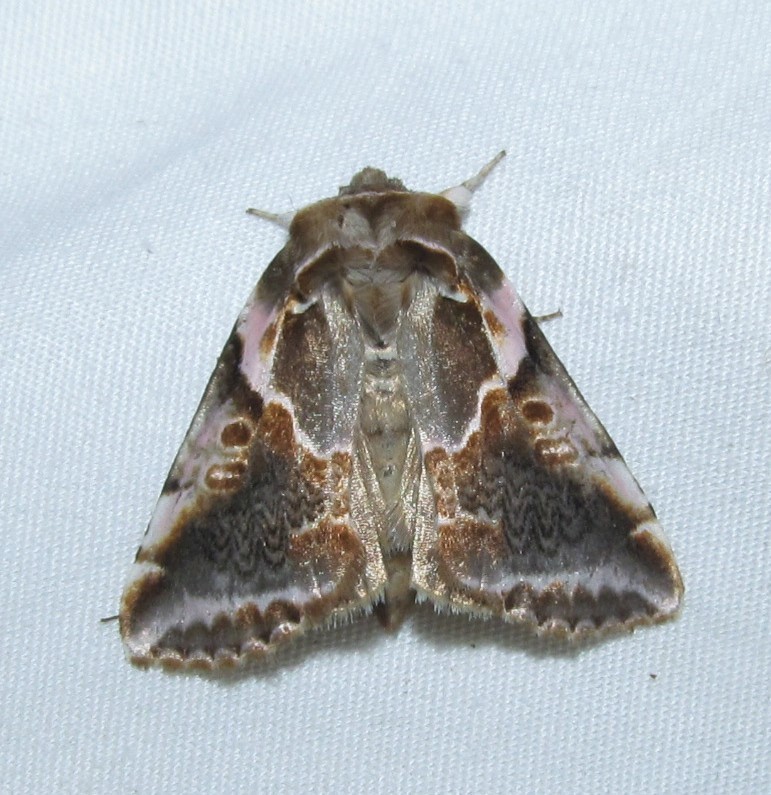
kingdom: Animalia
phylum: Arthropoda
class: Insecta
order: Lepidoptera
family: Drepanidae
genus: Habrosyne
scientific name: Habrosyne gloriosa
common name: Glorious habrosyne moth
